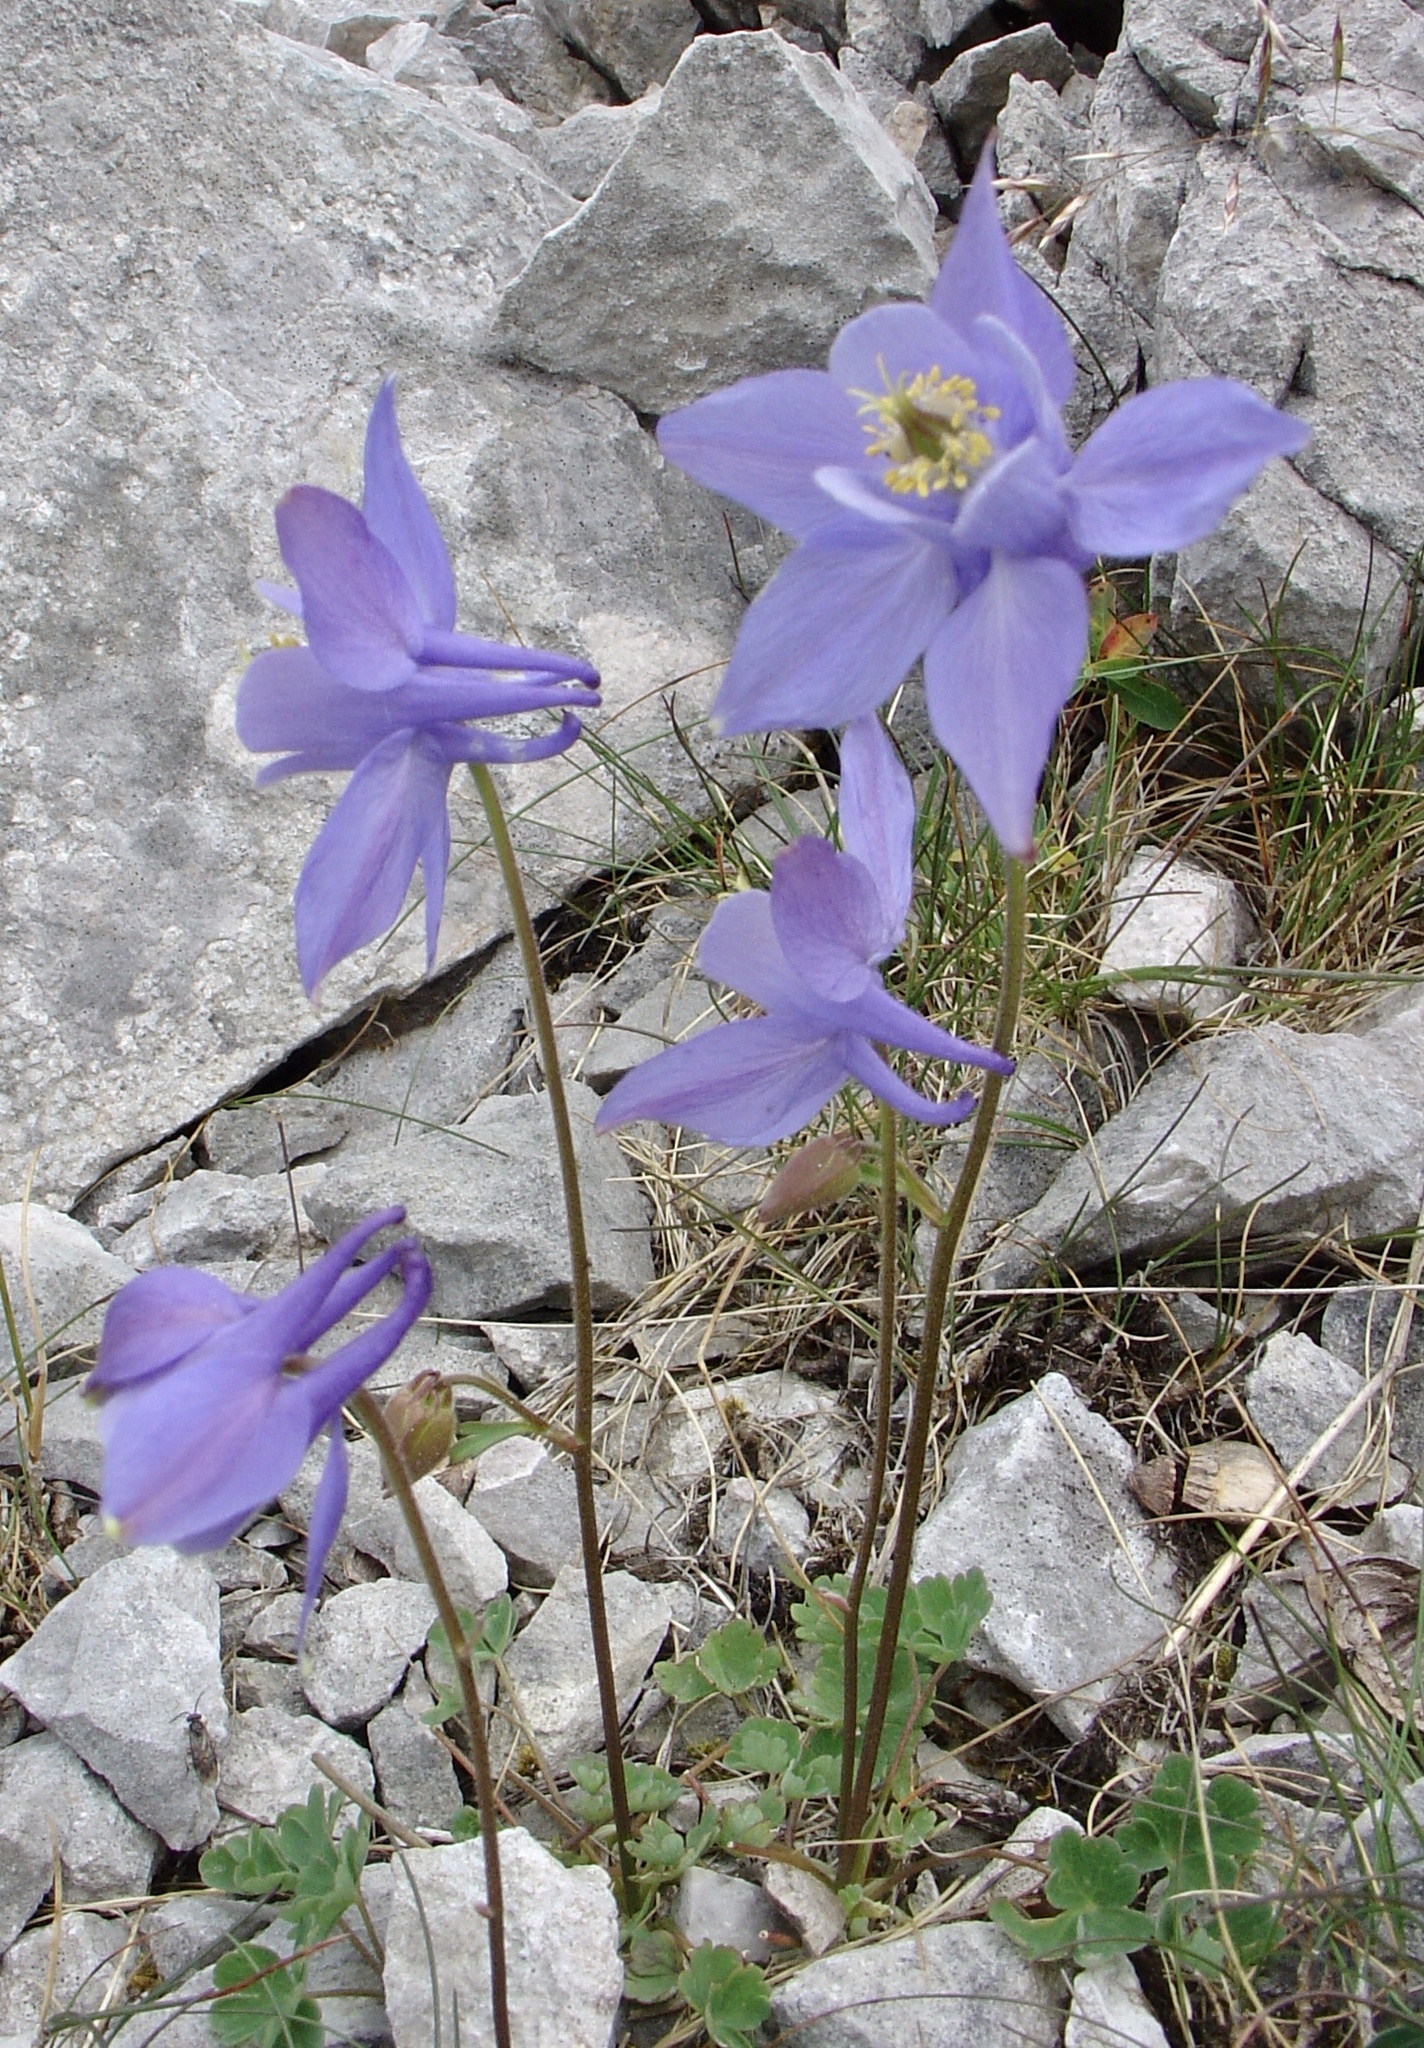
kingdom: Plantae
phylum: Tracheophyta
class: Magnoliopsida
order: Ranunculales
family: Ranunculaceae
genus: Aquilegia
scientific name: Aquilegia vulgaris
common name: Columbine
